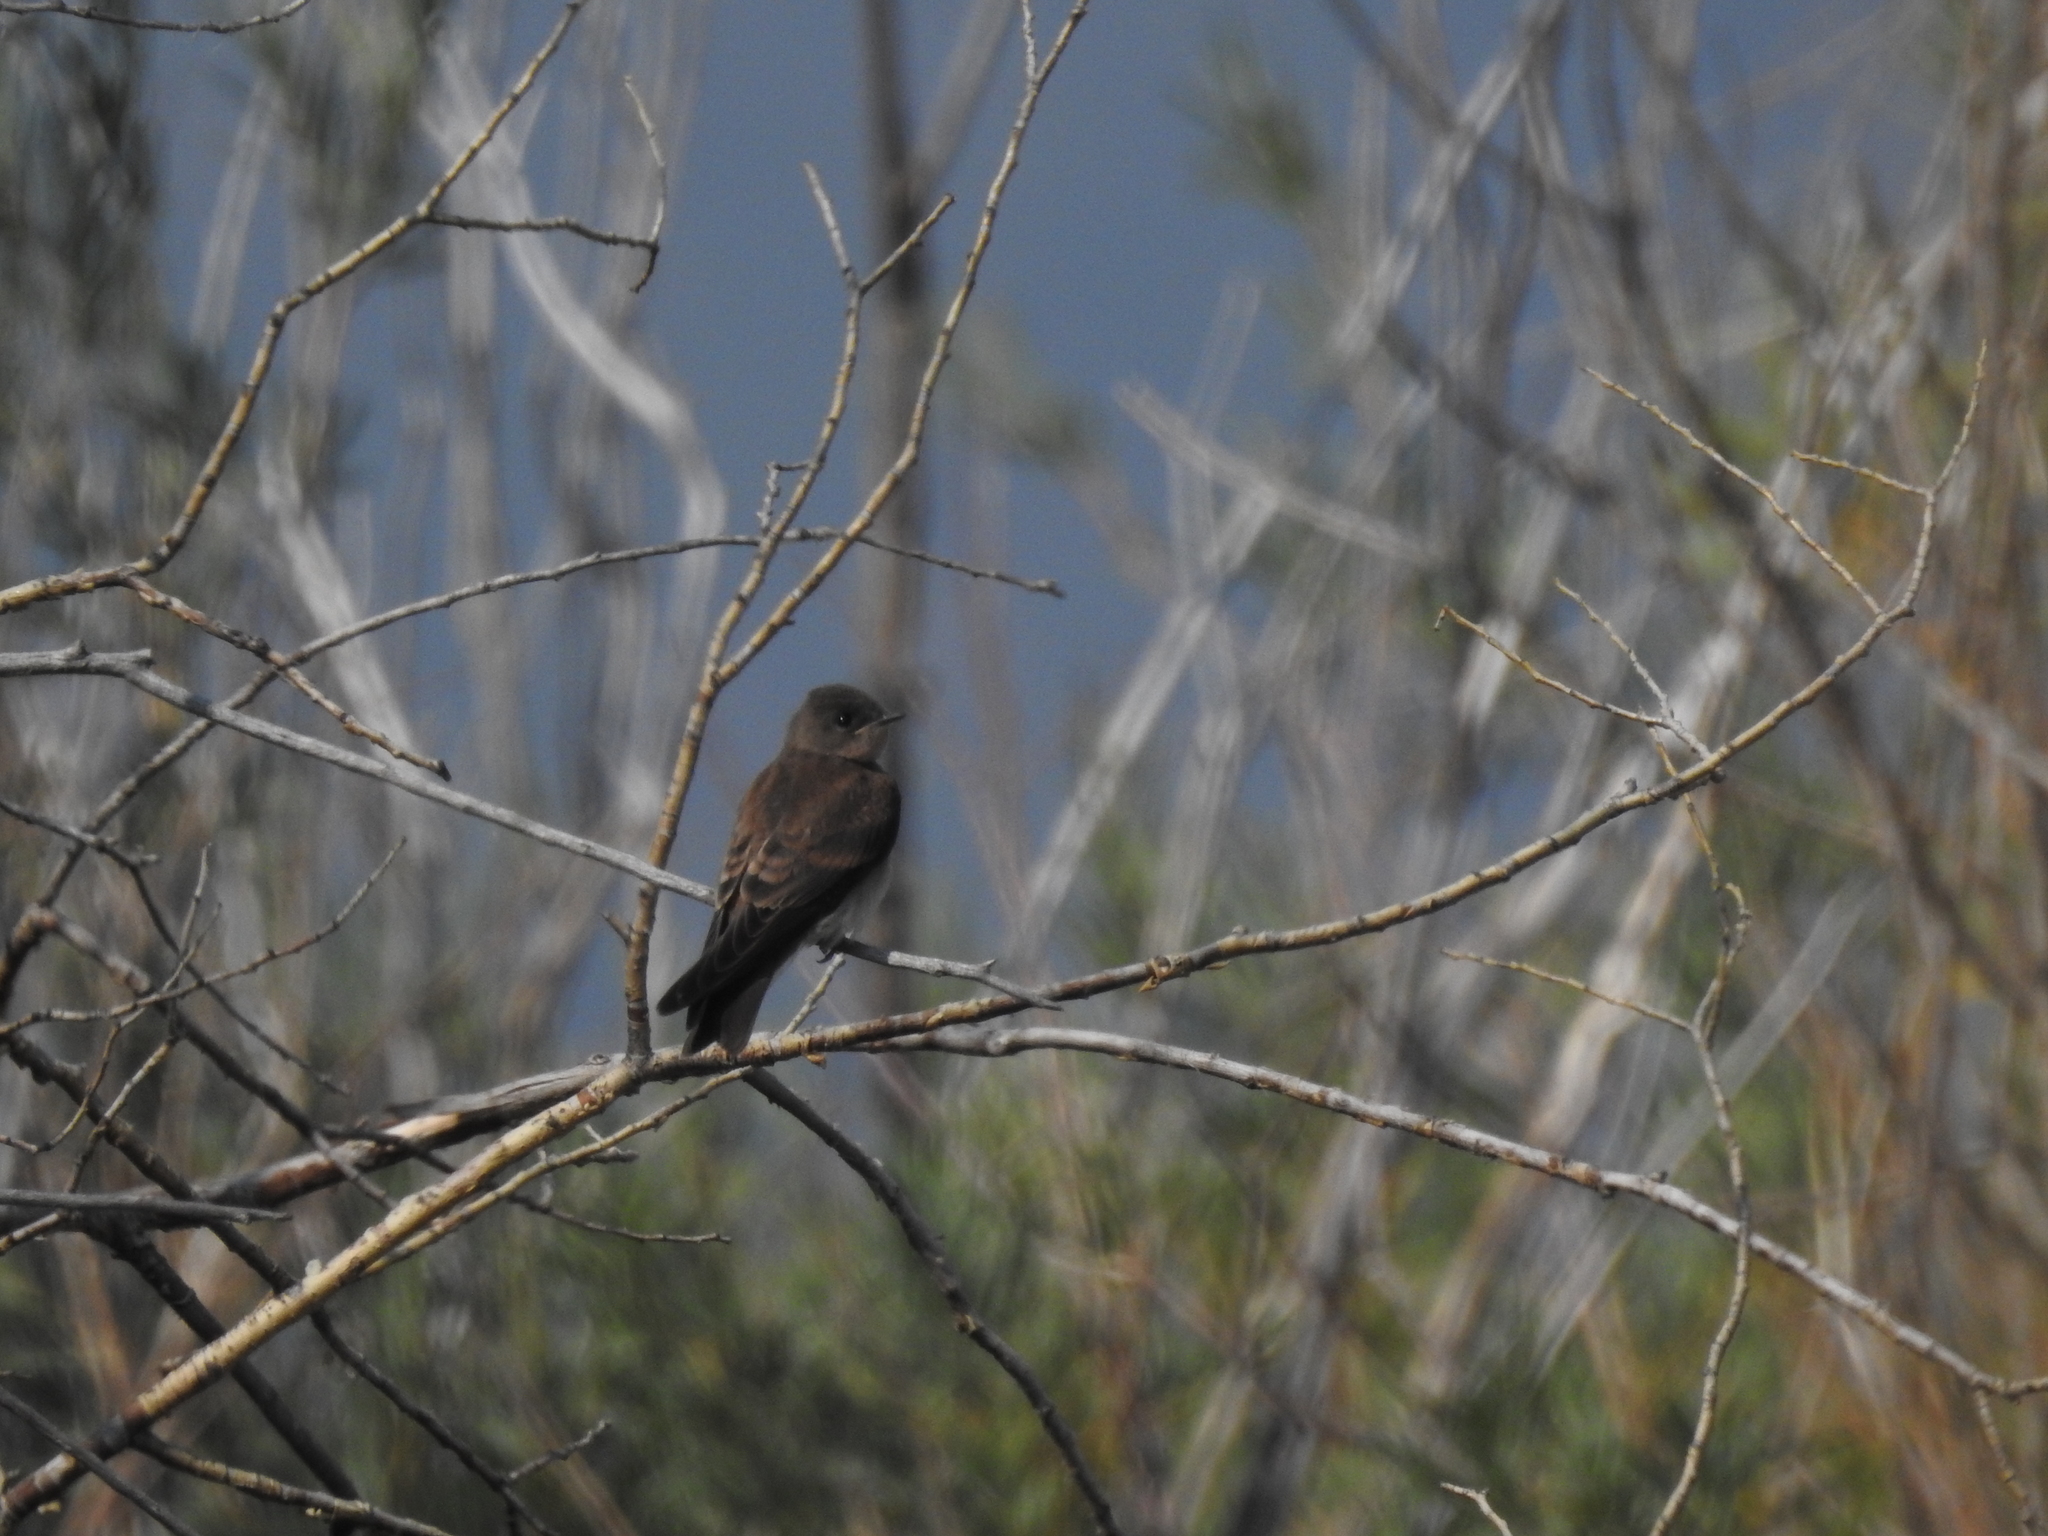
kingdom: Animalia
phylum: Chordata
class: Aves
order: Passeriformes
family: Hirundinidae
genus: Stelgidopteryx
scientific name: Stelgidopteryx serripennis
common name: Northern rough-winged swallow
